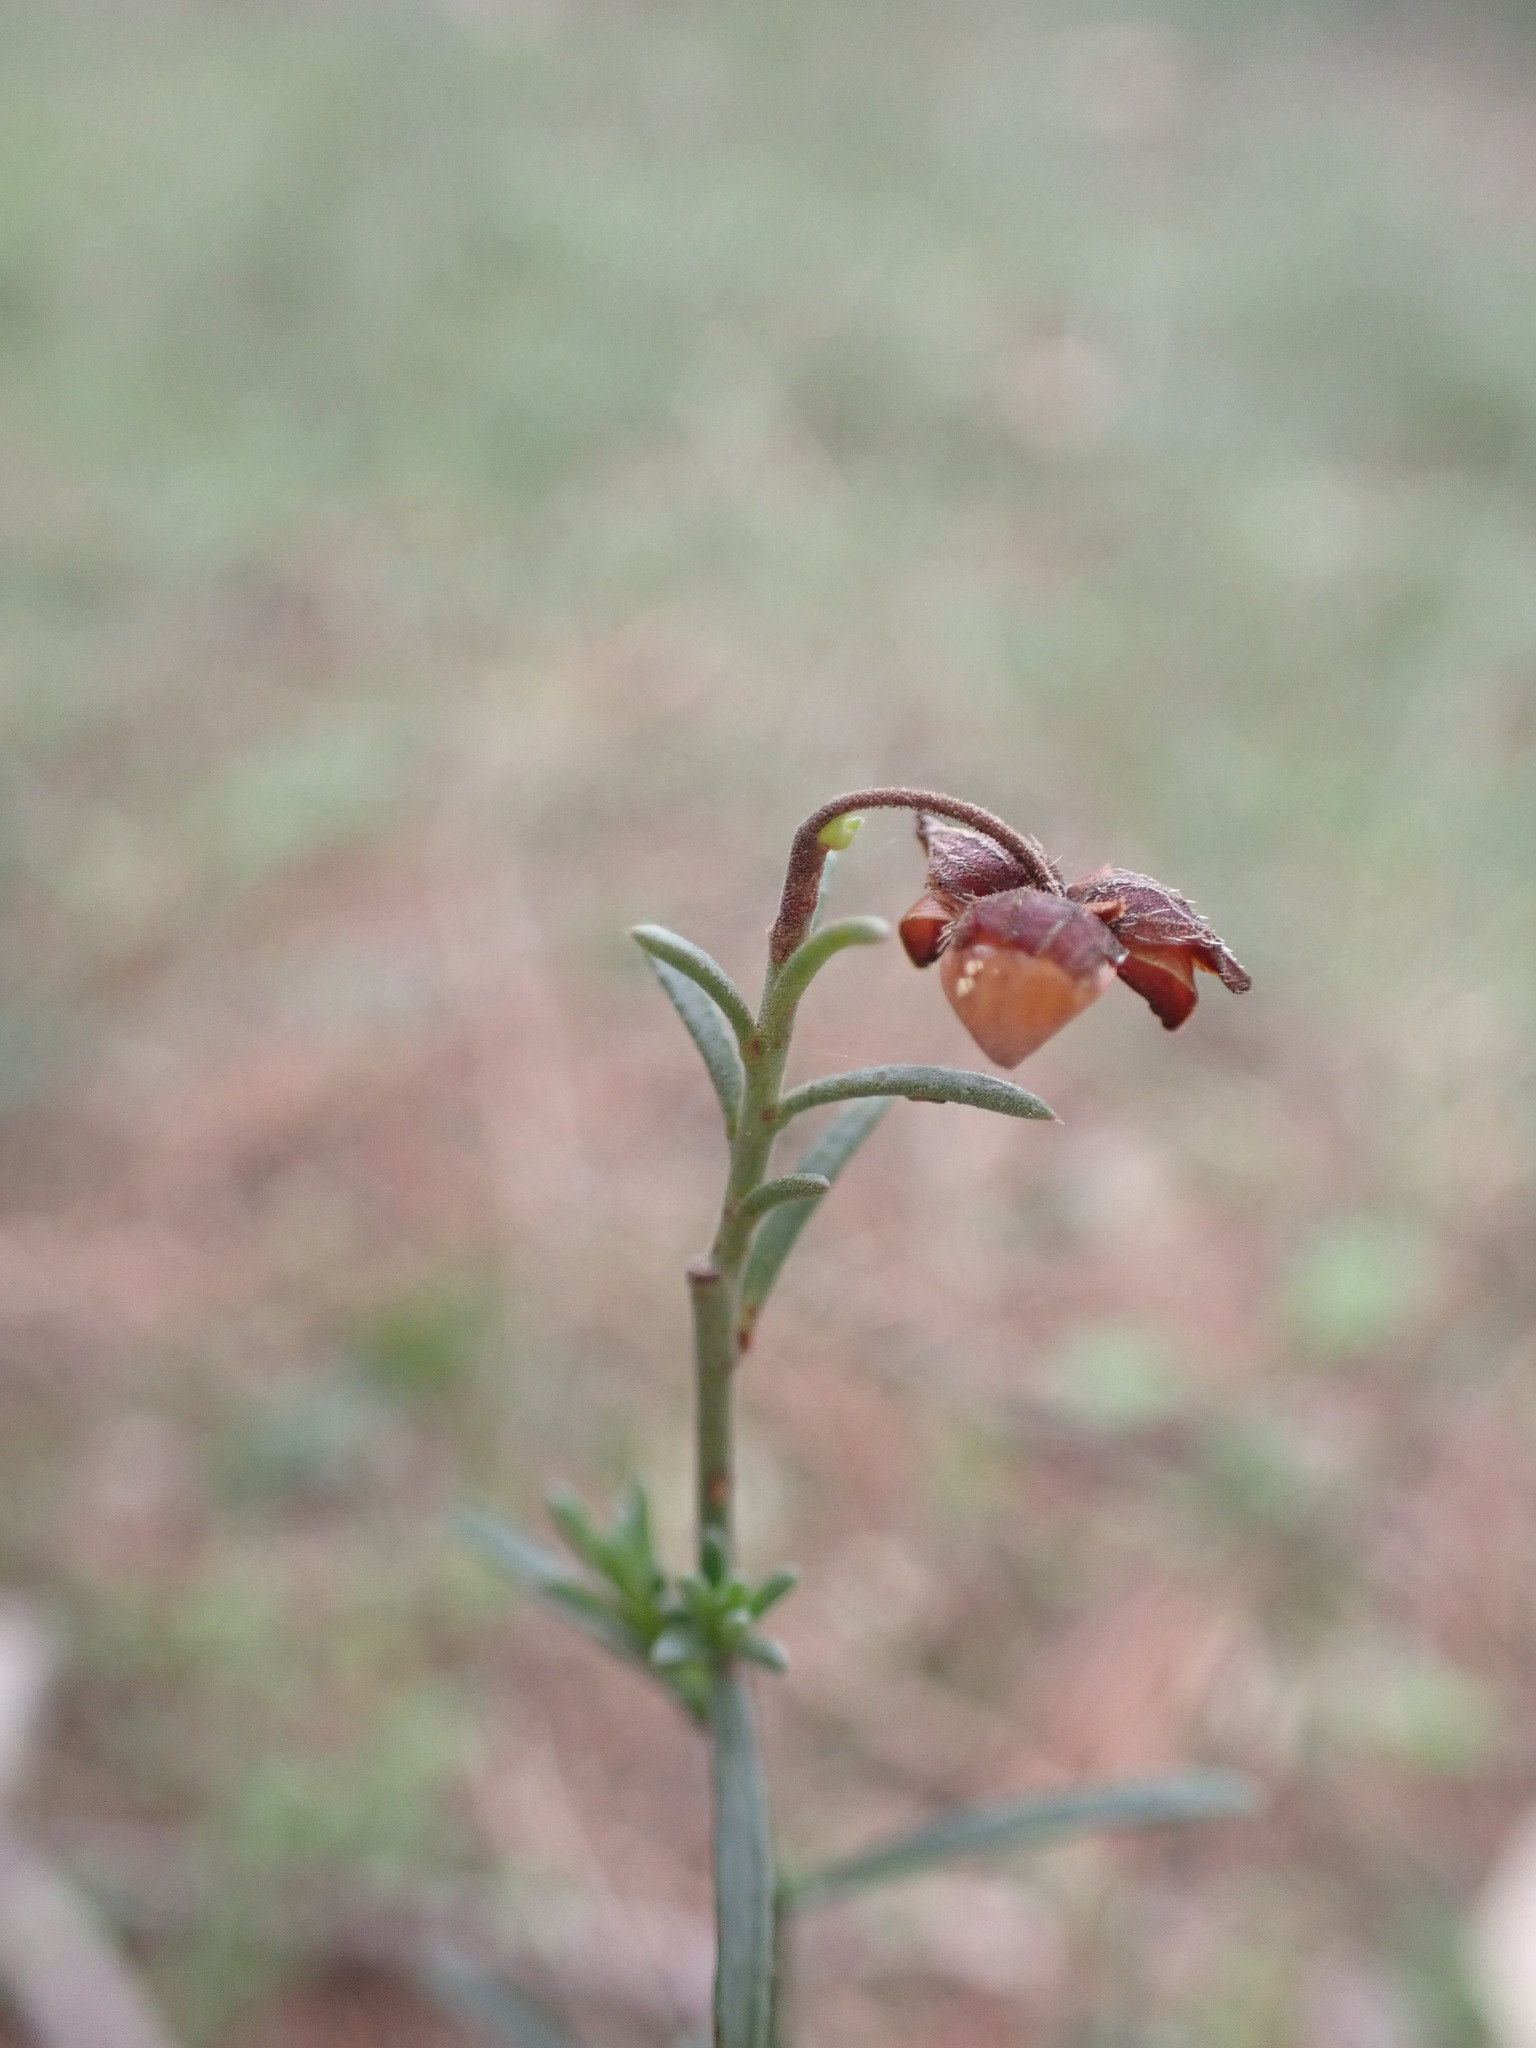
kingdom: Plantae
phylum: Tracheophyta
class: Magnoliopsida
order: Malvales
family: Cistaceae
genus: Fumana
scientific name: Fumana ericifolia
